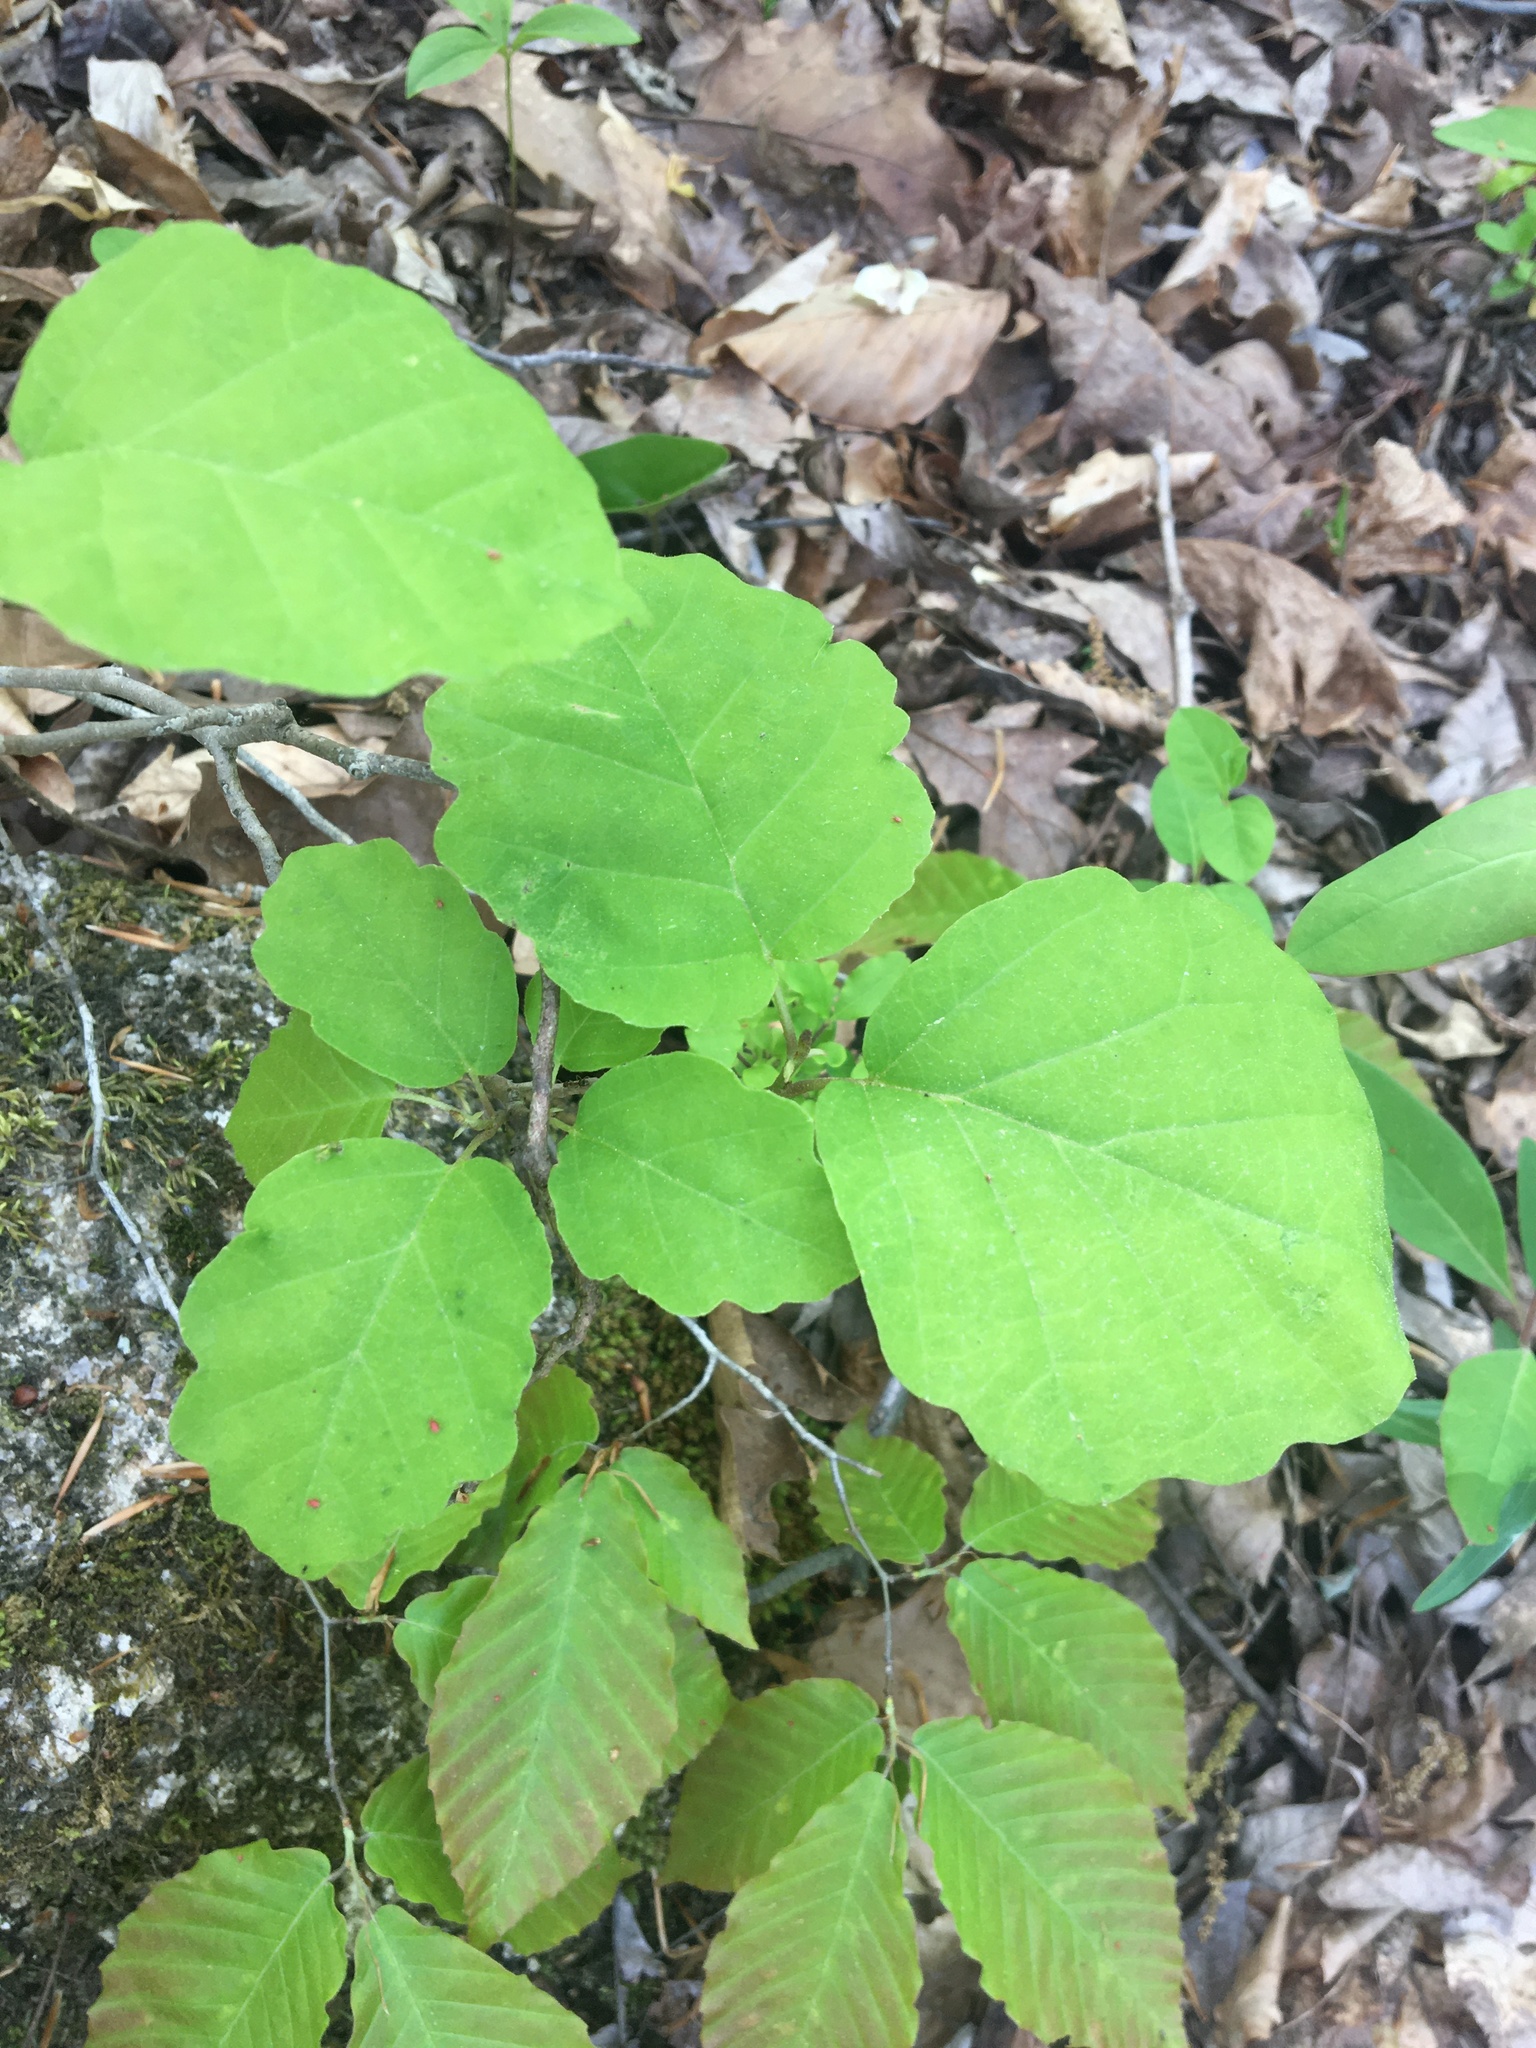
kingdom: Plantae
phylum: Tracheophyta
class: Magnoliopsida
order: Saxifragales
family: Hamamelidaceae
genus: Hamamelis
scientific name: Hamamelis virginiana
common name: Witch-hazel
